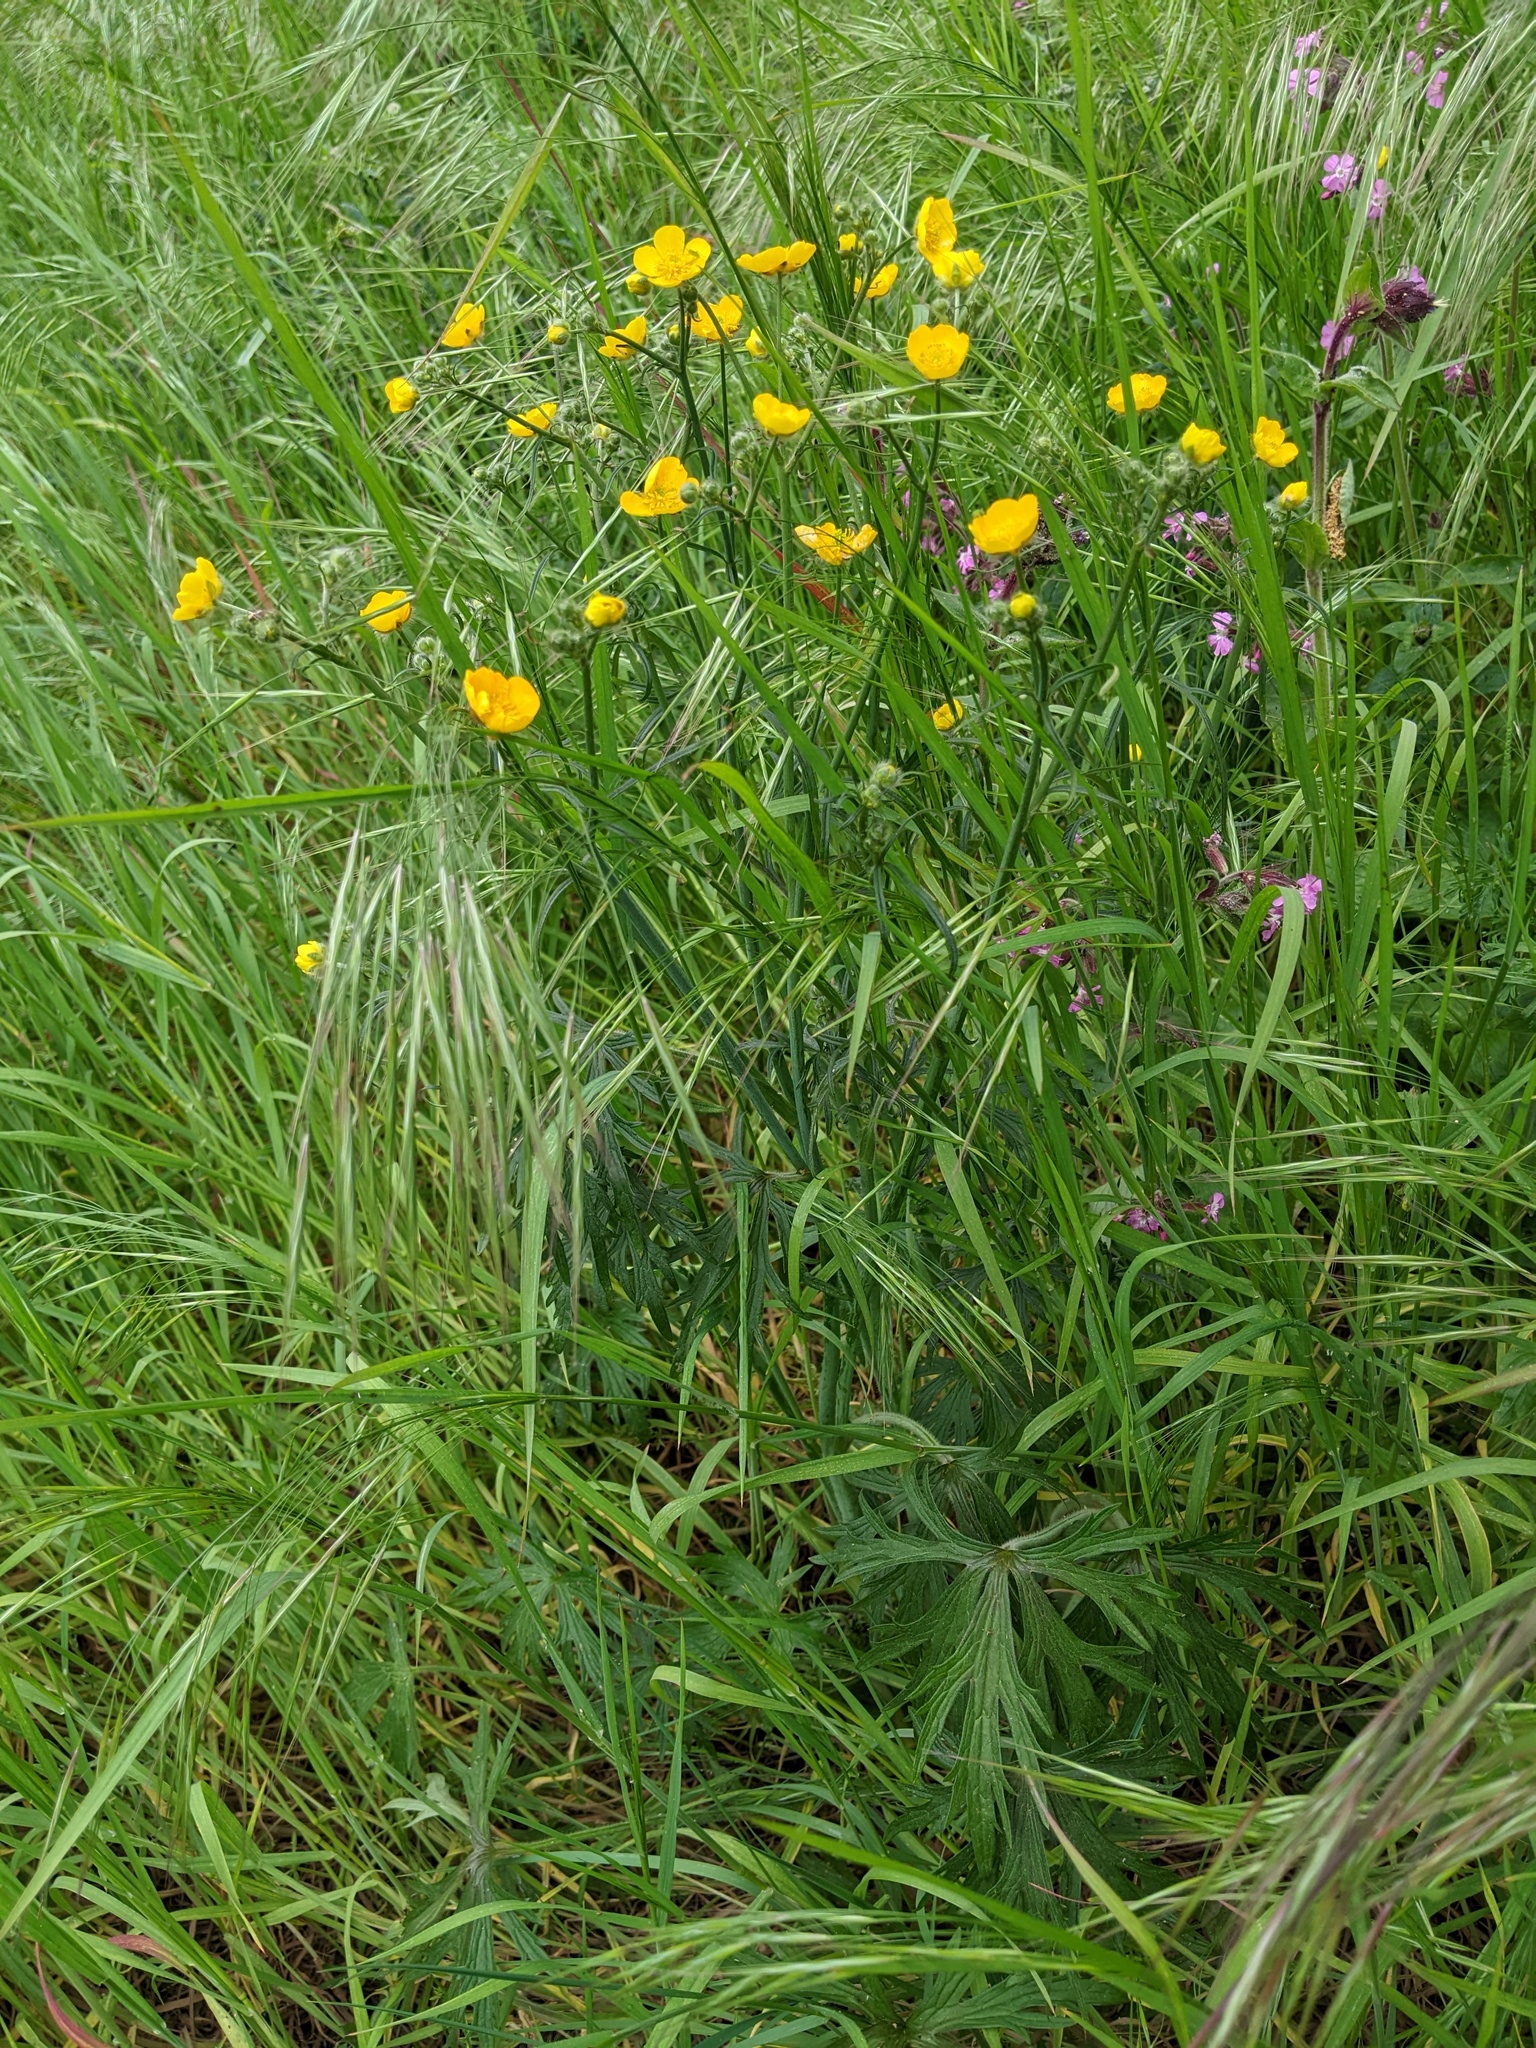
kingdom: Plantae
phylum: Tracheophyta
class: Magnoliopsida
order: Ranunculales
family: Ranunculaceae
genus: Ranunculus
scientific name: Ranunculus acris
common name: Meadow buttercup
